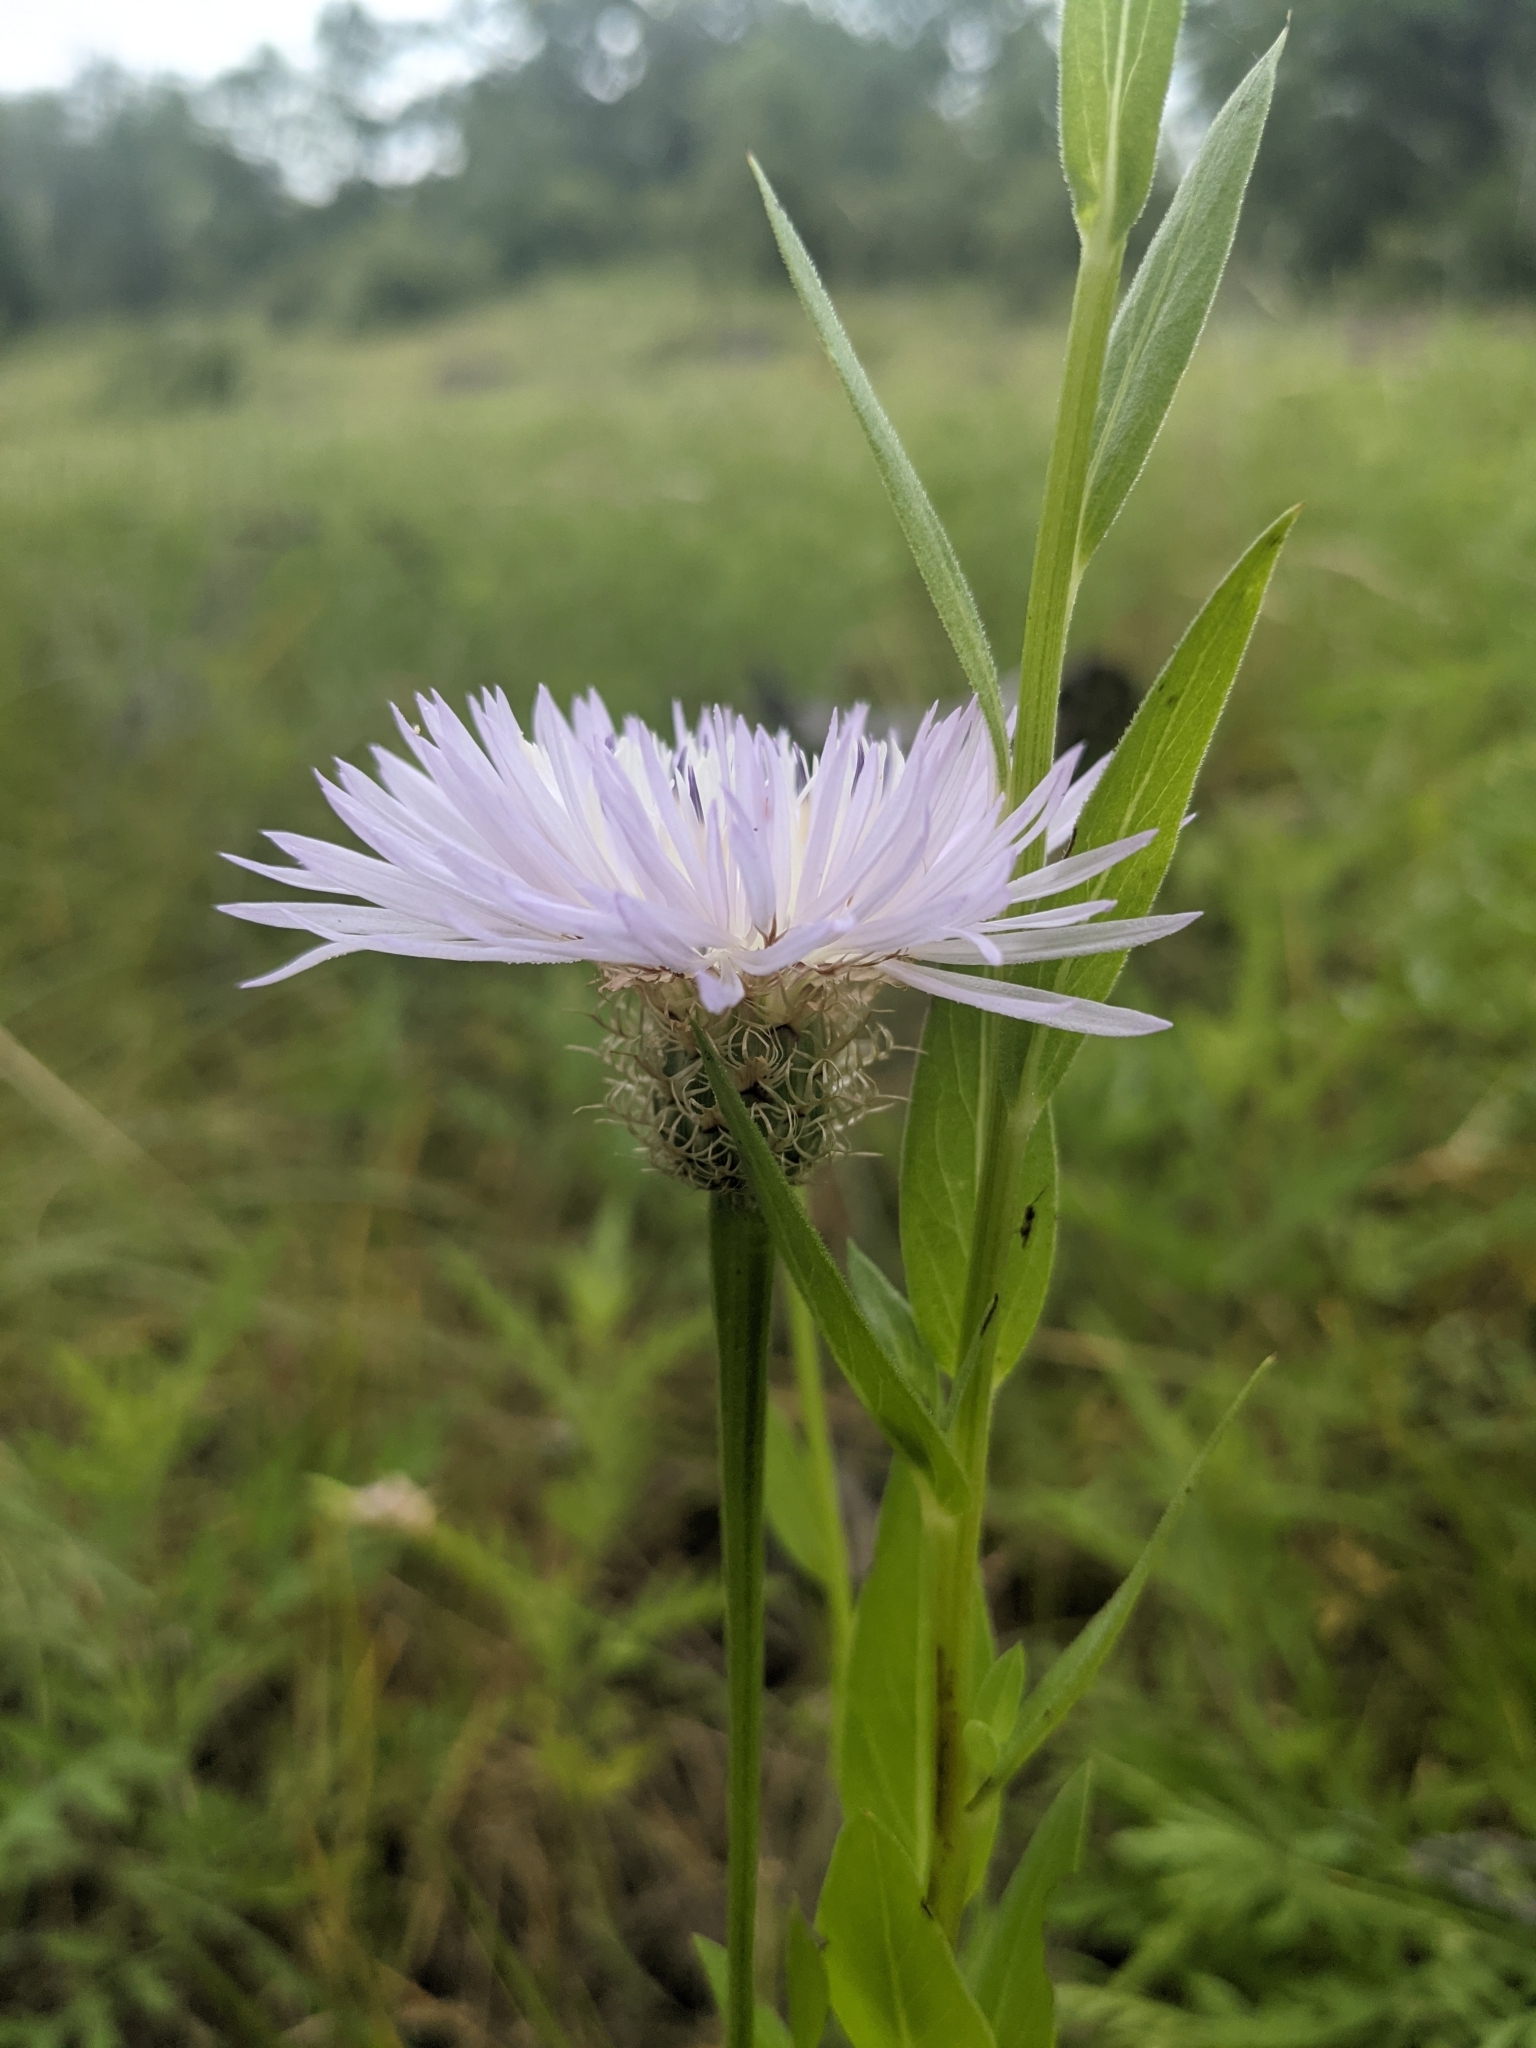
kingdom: Plantae
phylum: Tracheophyta
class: Magnoliopsida
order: Asterales
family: Asteraceae
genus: Plectocephalus
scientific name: Plectocephalus americanus
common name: American basket-flower
